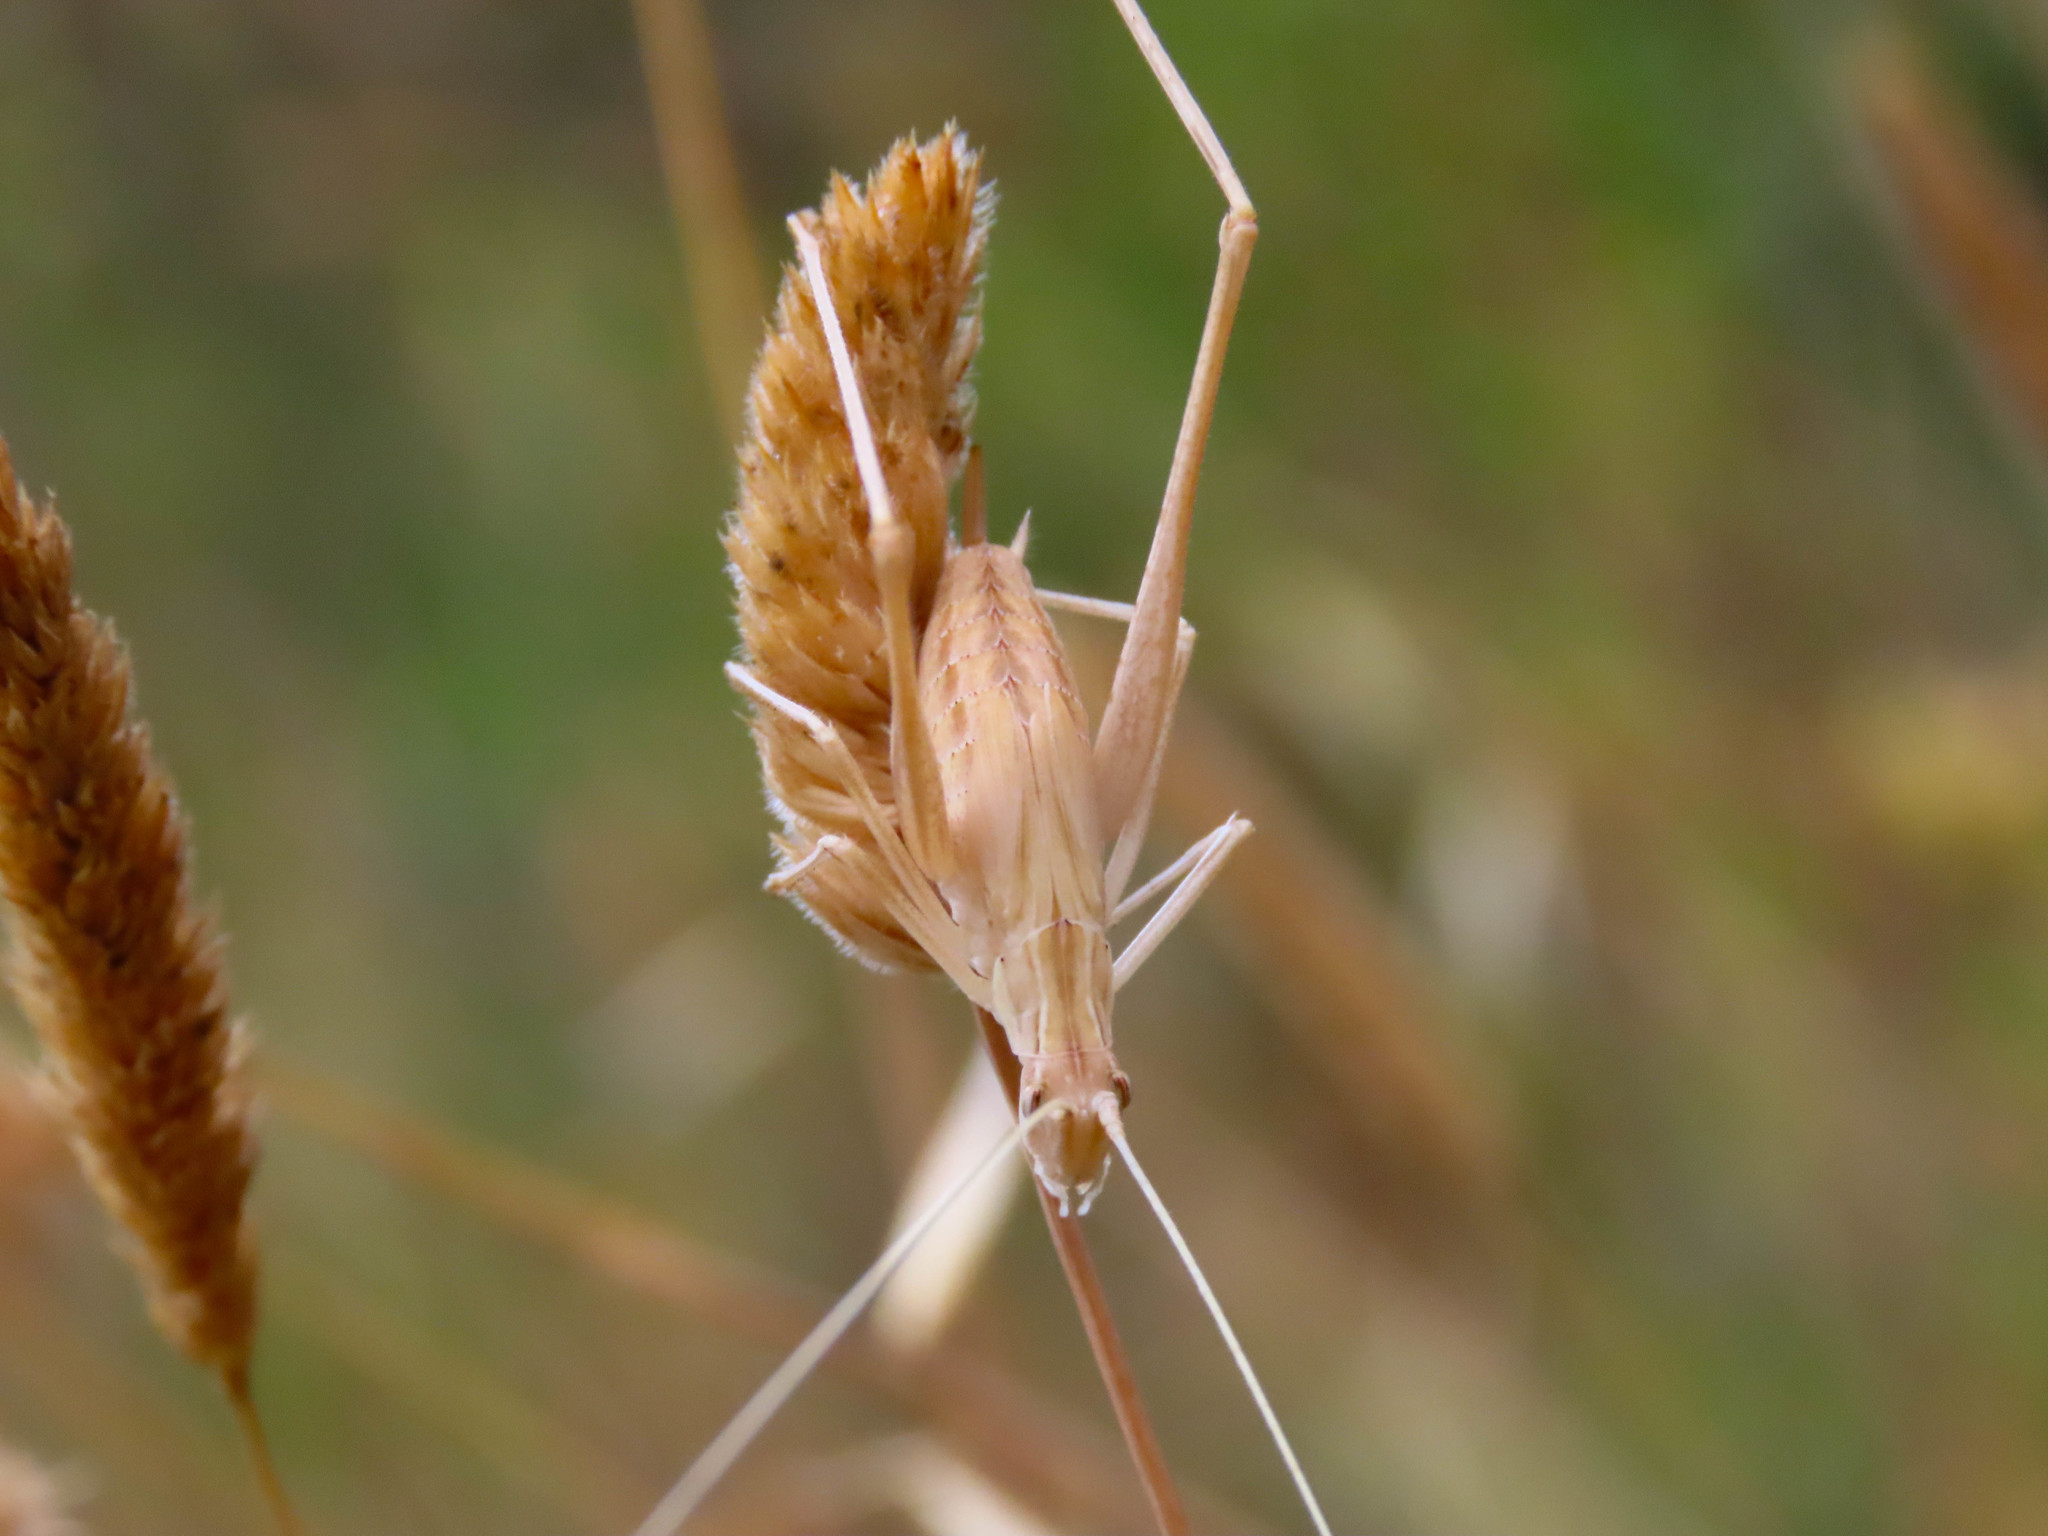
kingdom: Animalia
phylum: Arthropoda
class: Insecta
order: Orthoptera
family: Tettigoniidae
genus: Tylopsis
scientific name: Tylopsis lilifolia
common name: Lily bush-cricket
